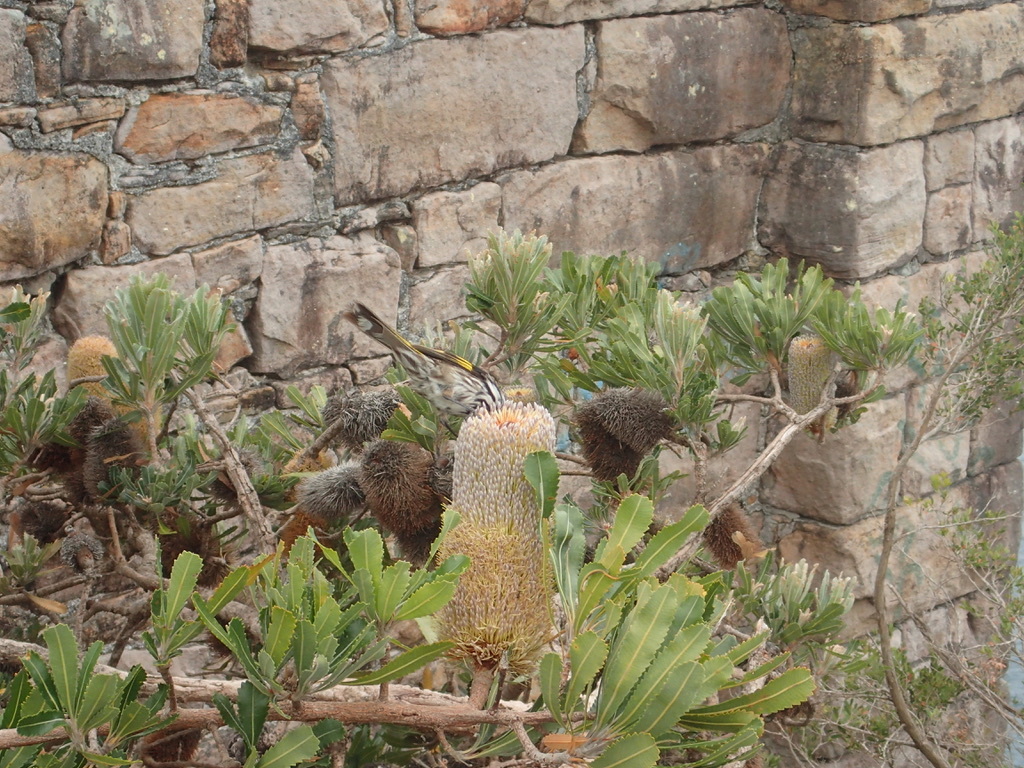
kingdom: Animalia
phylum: Chordata
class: Aves
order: Passeriformes
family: Meliphagidae
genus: Phylidonyris
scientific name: Phylidonyris novaehollandiae
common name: New holland honeyeater
